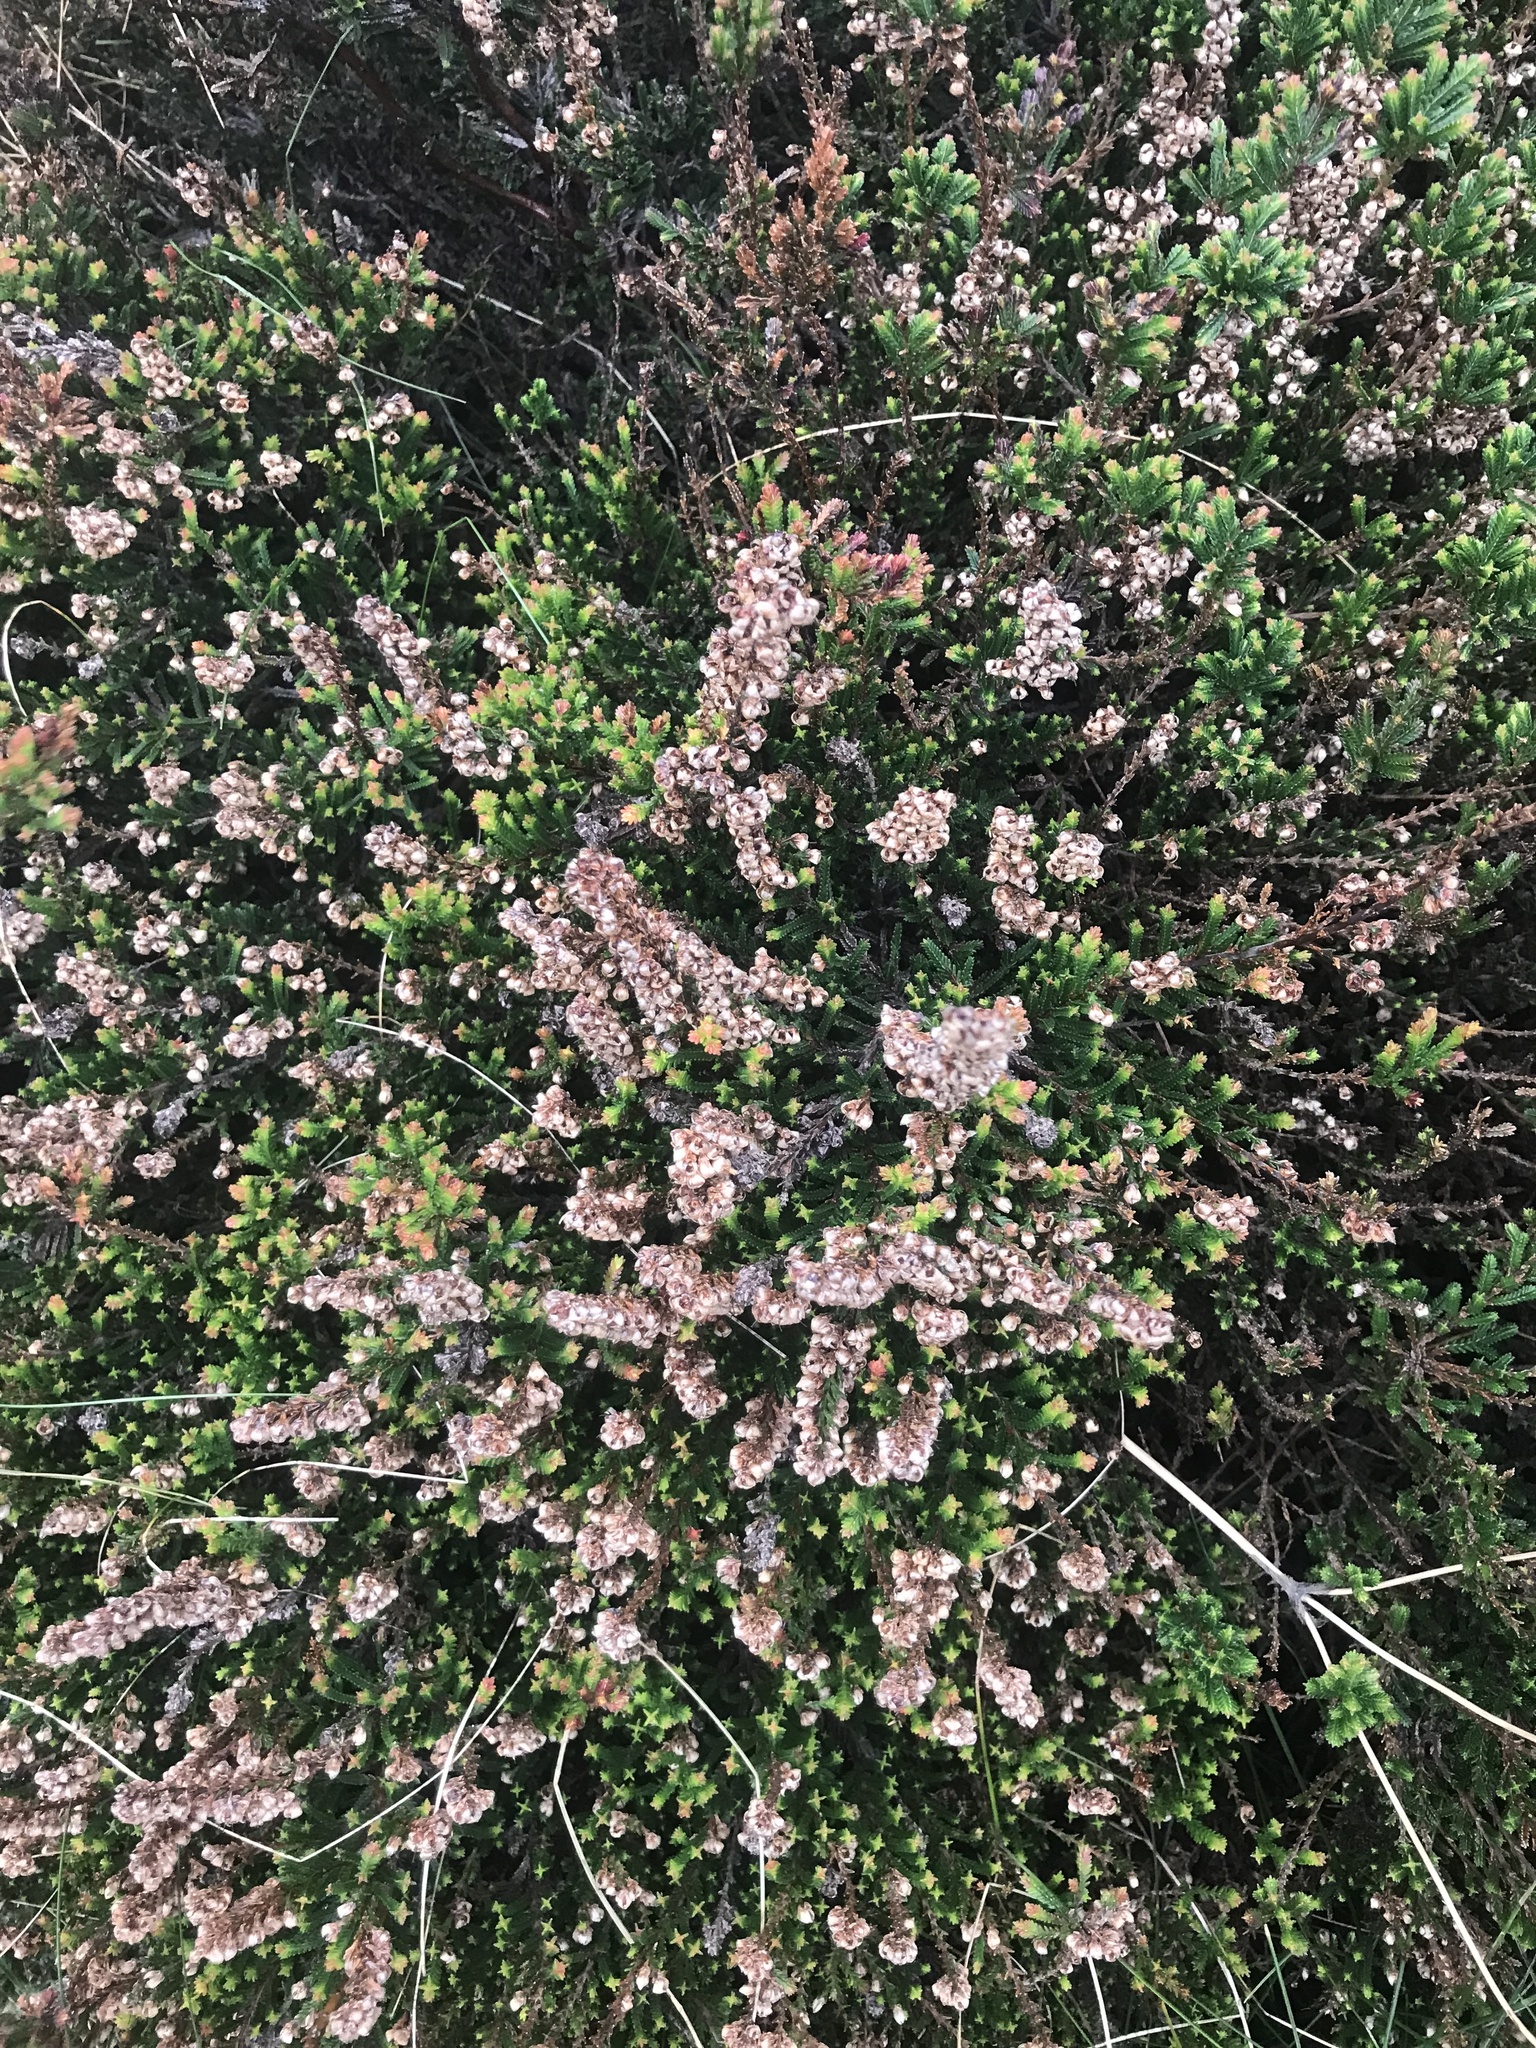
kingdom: Plantae
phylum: Tracheophyta
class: Magnoliopsida
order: Ericales
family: Ericaceae
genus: Calluna
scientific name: Calluna vulgaris
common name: Heather
